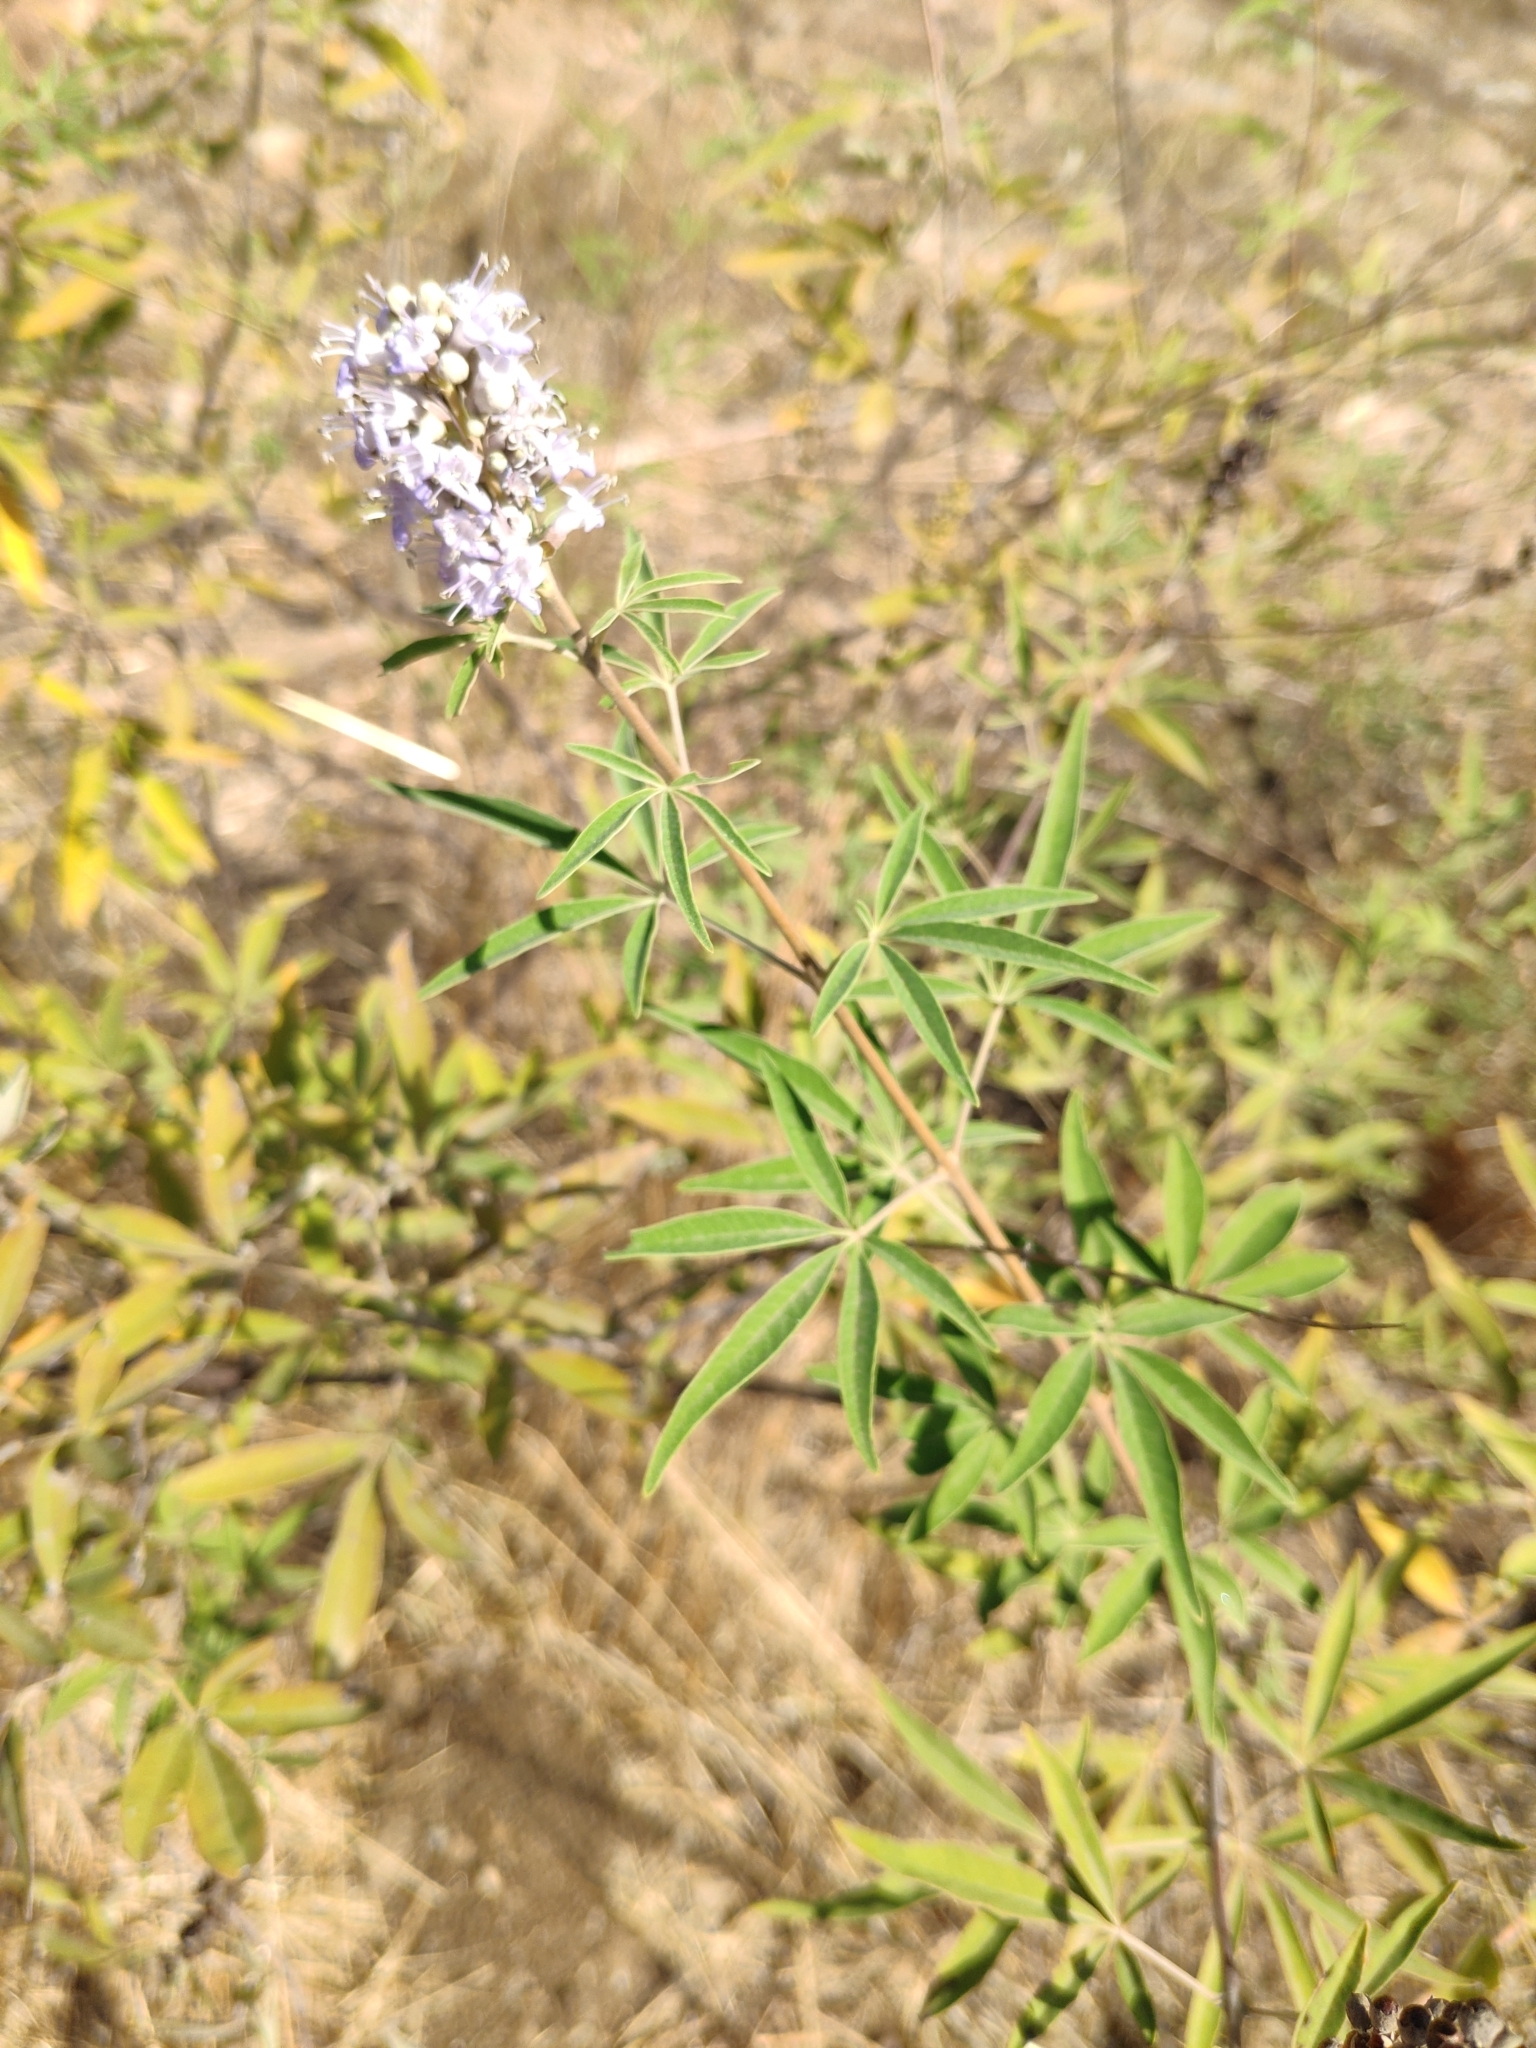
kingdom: Plantae
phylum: Tracheophyta
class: Magnoliopsida
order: Lamiales
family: Lamiaceae
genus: Vitex
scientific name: Vitex agnus-castus
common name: Chasteberry
